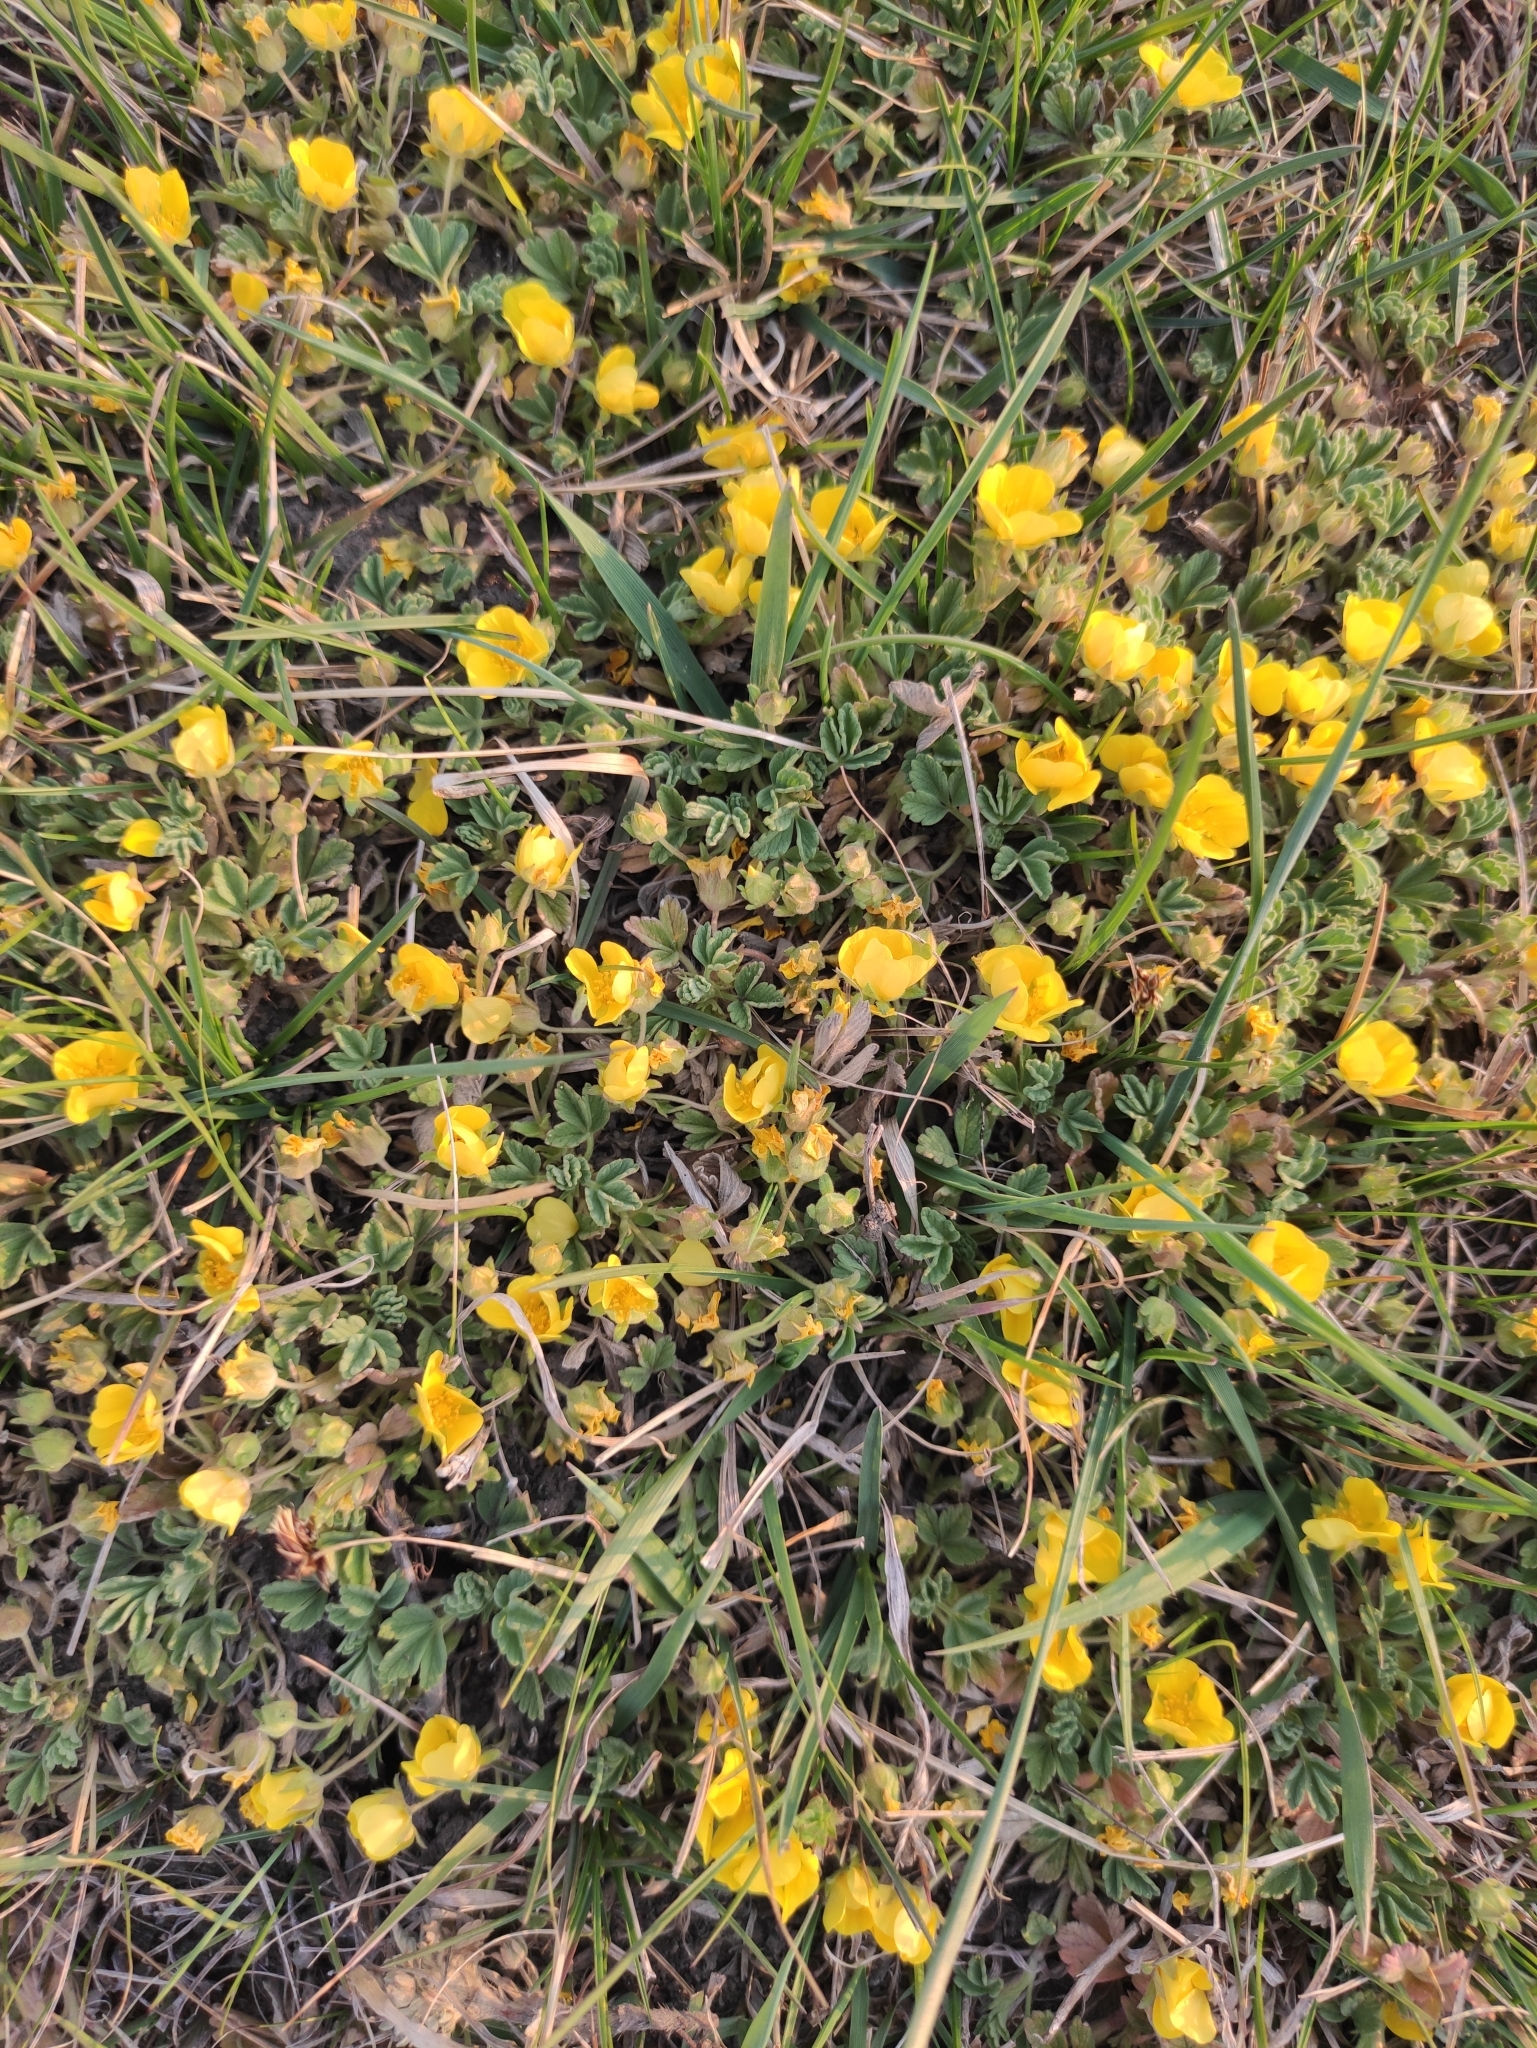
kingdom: Plantae
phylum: Tracheophyta
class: Magnoliopsida
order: Rosales
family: Rosaceae
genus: Potentilla
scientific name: Potentilla acaulis
